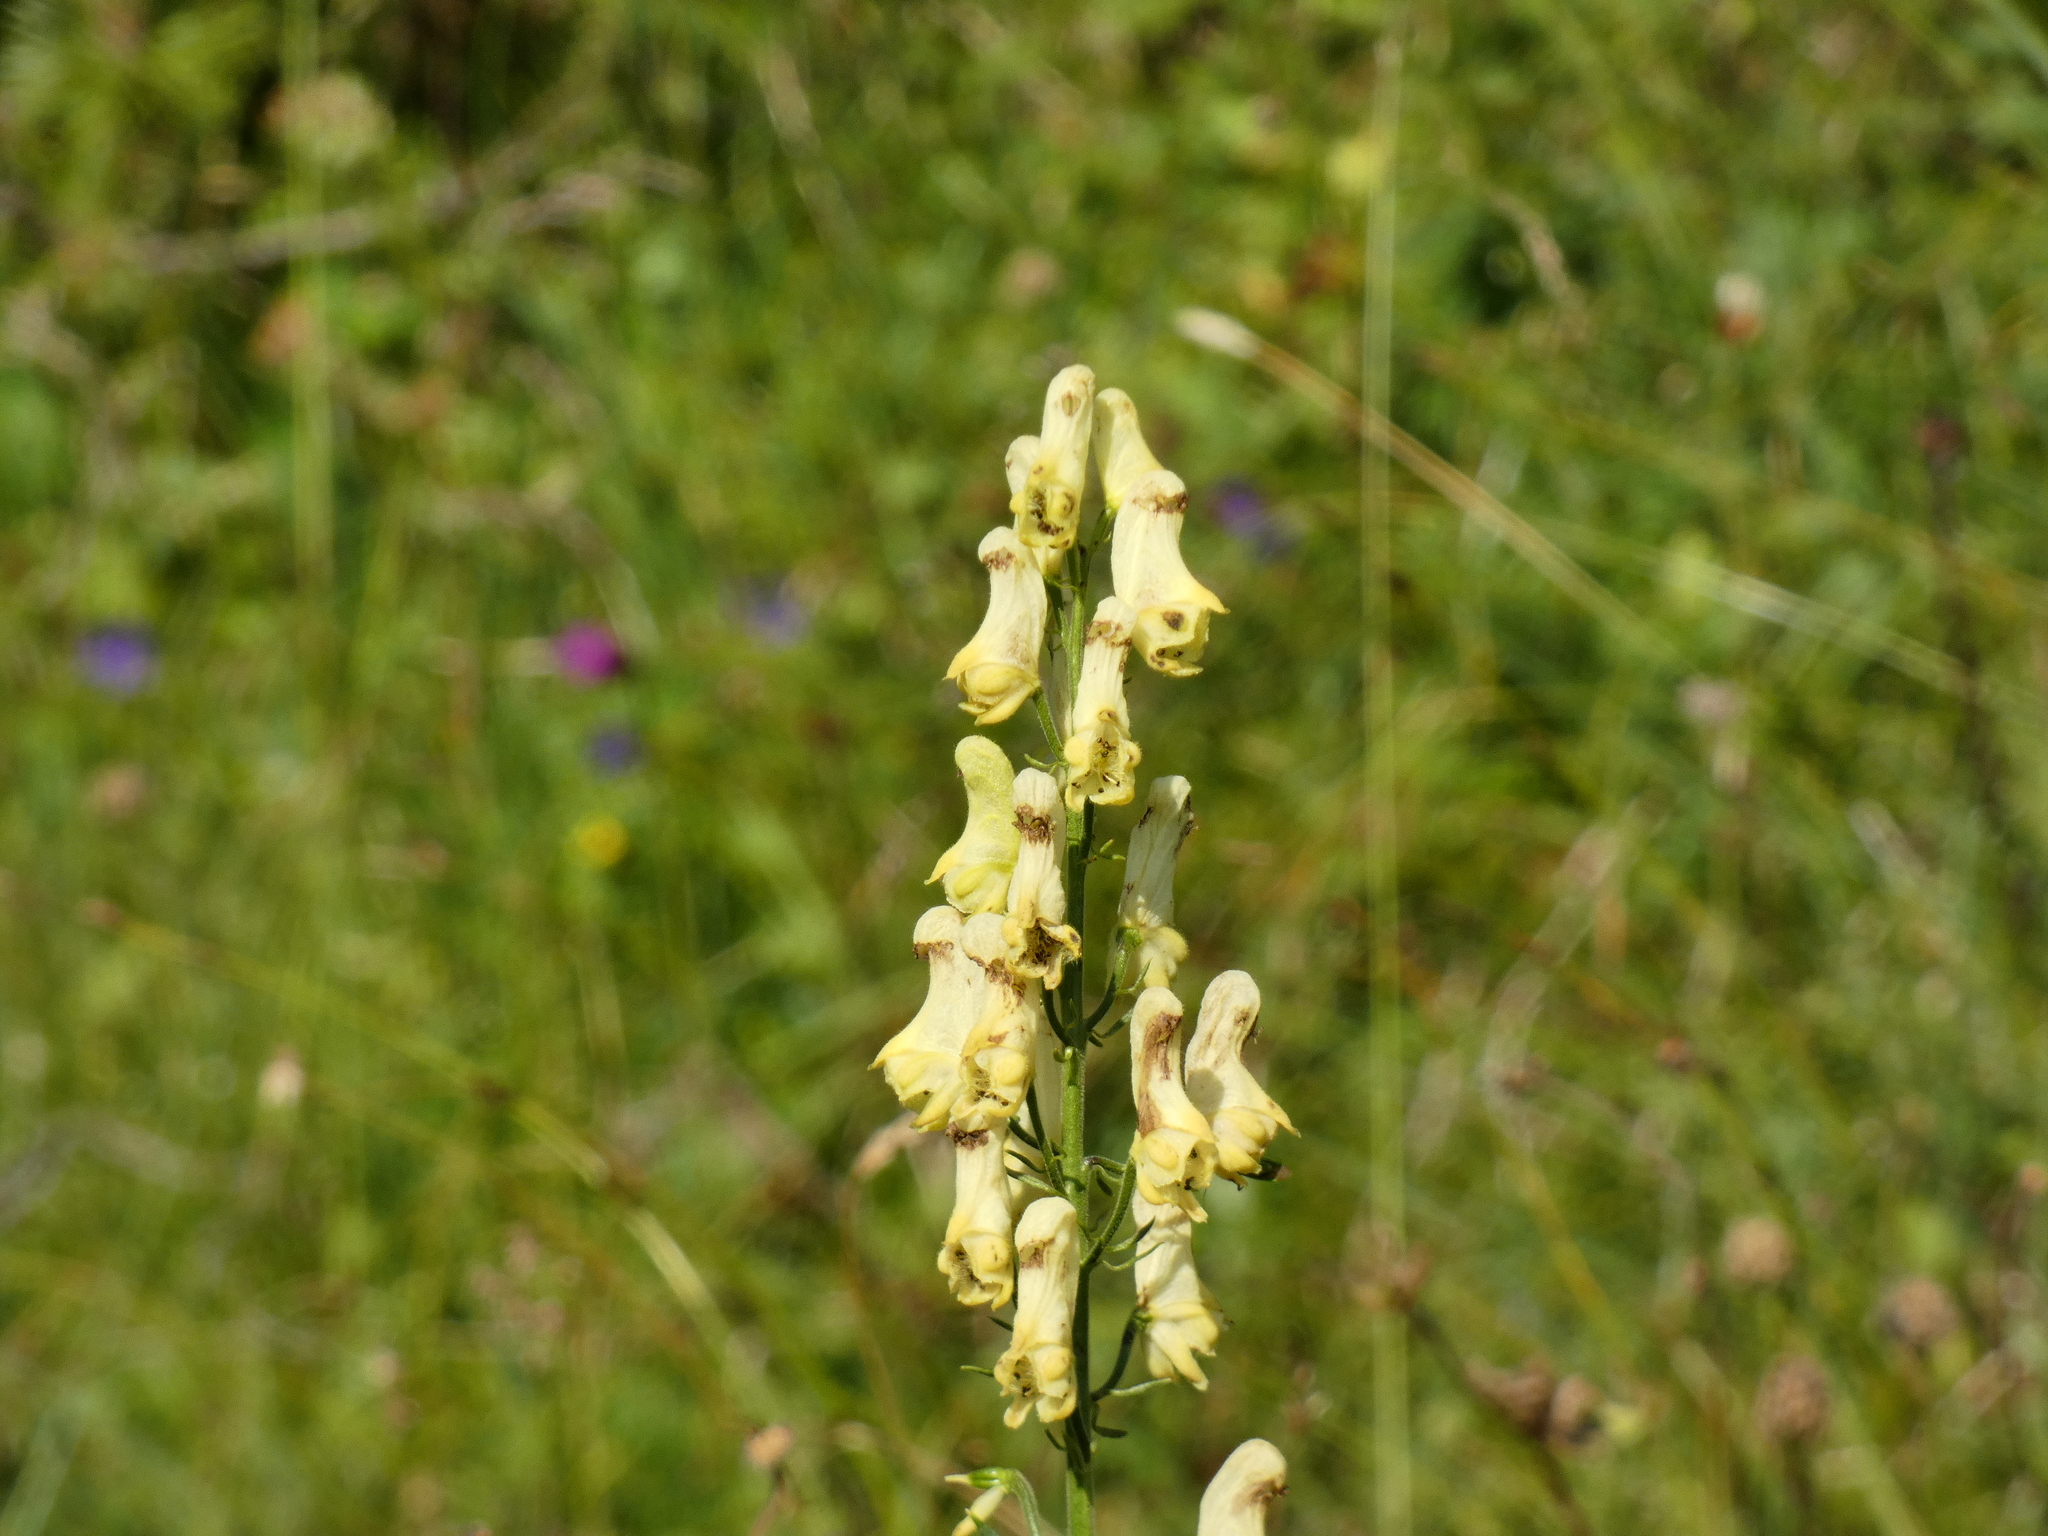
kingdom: Plantae
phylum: Tracheophyta
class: Magnoliopsida
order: Ranunculales
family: Ranunculaceae
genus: Aconitum
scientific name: Aconitum lycoctonum
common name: Wolf's-bane
